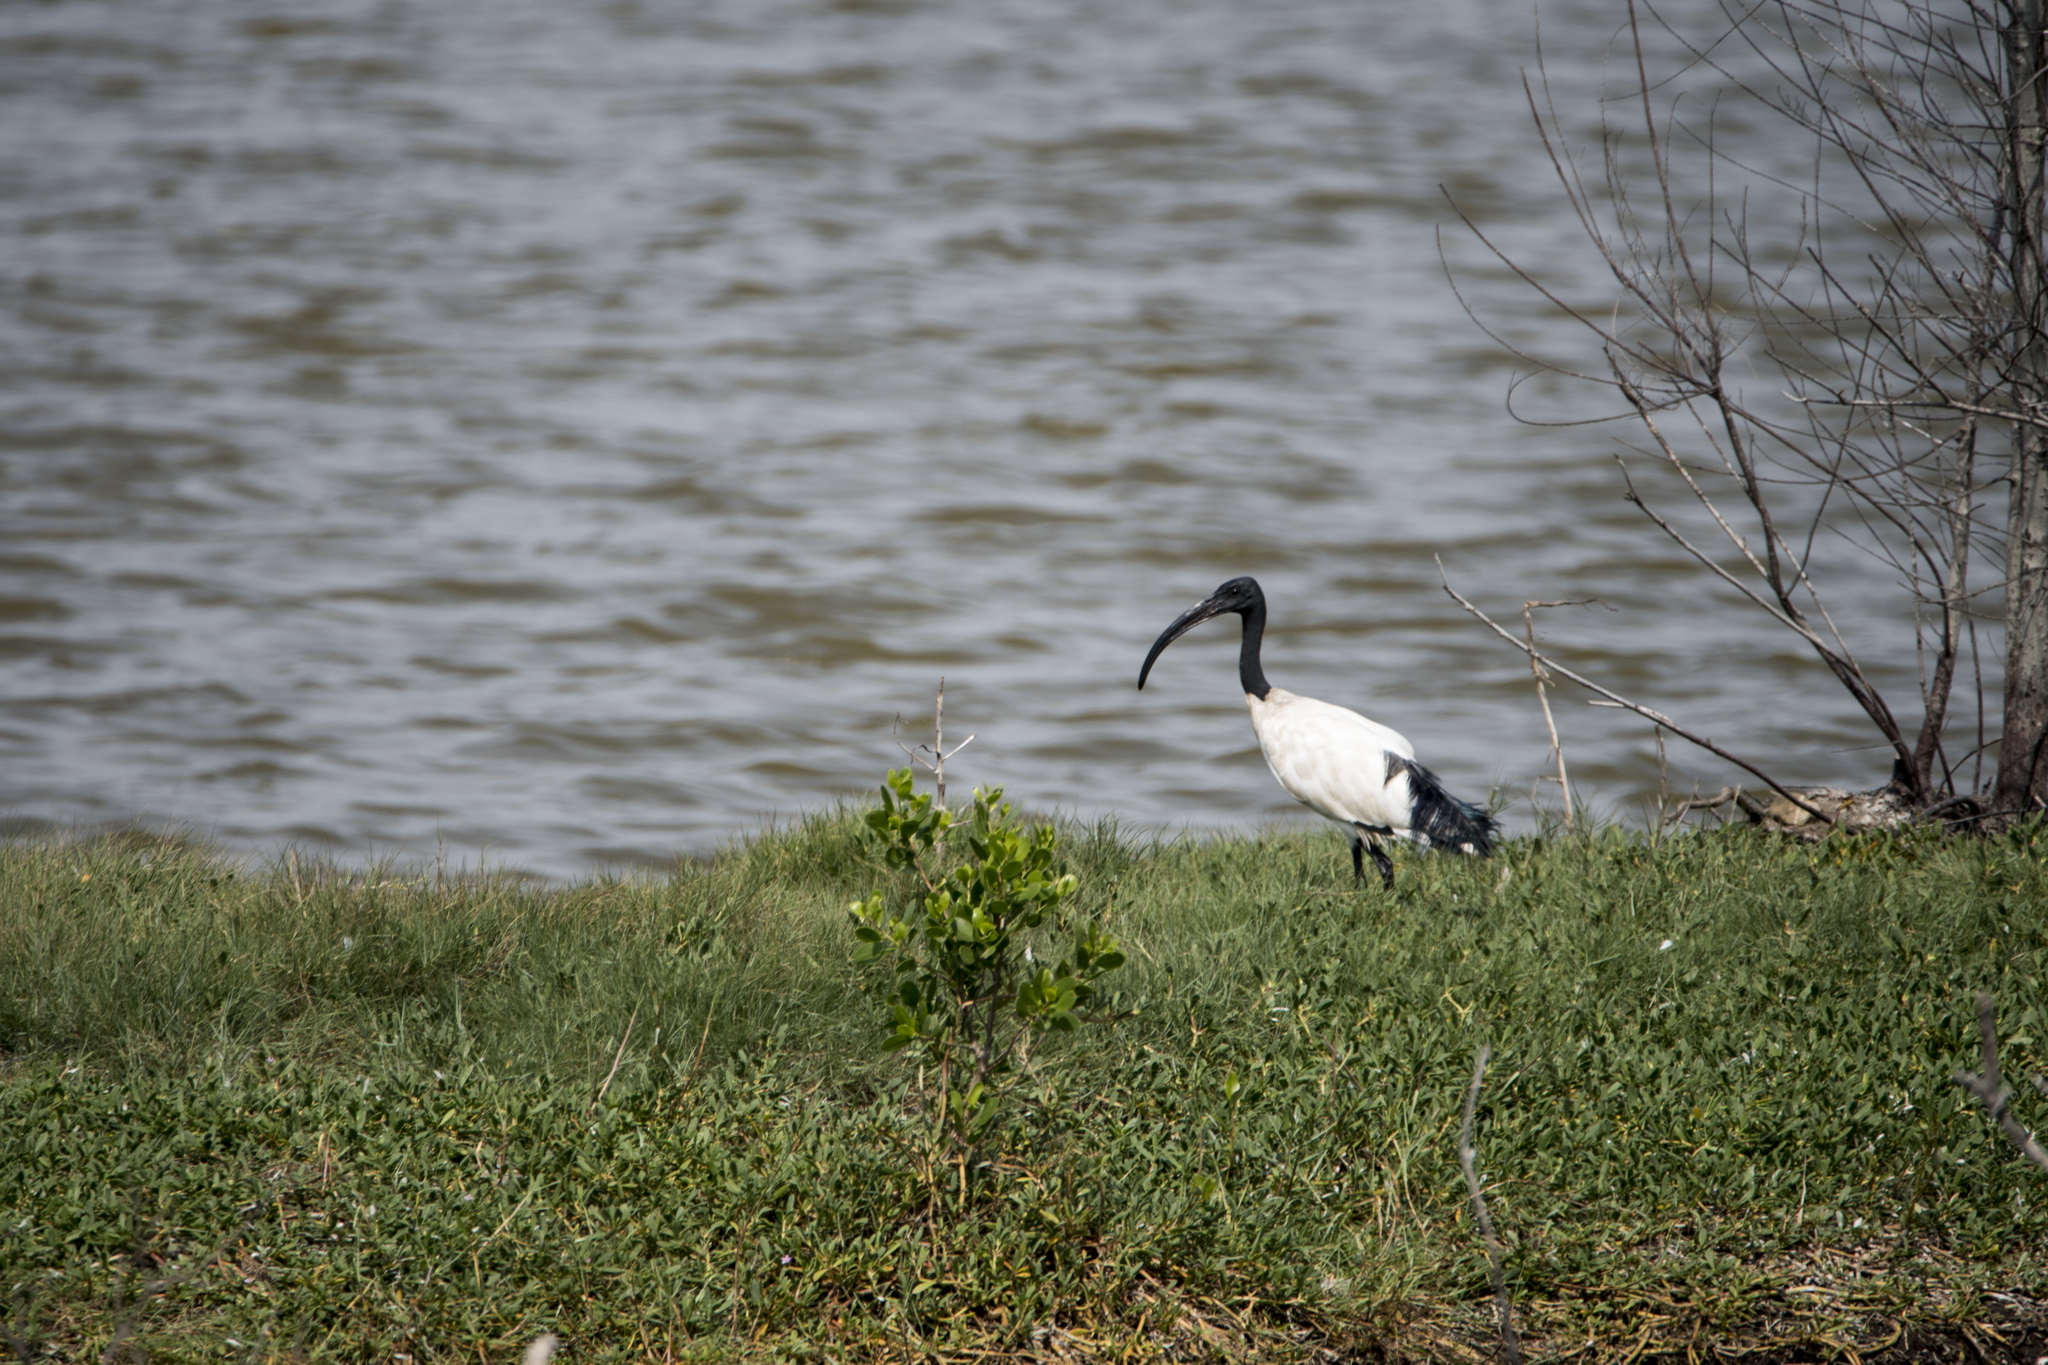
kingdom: Animalia
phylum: Chordata
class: Aves
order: Pelecaniformes
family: Threskiornithidae
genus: Threskiornis
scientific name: Threskiornis aethiopicus
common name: Sacred ibis
